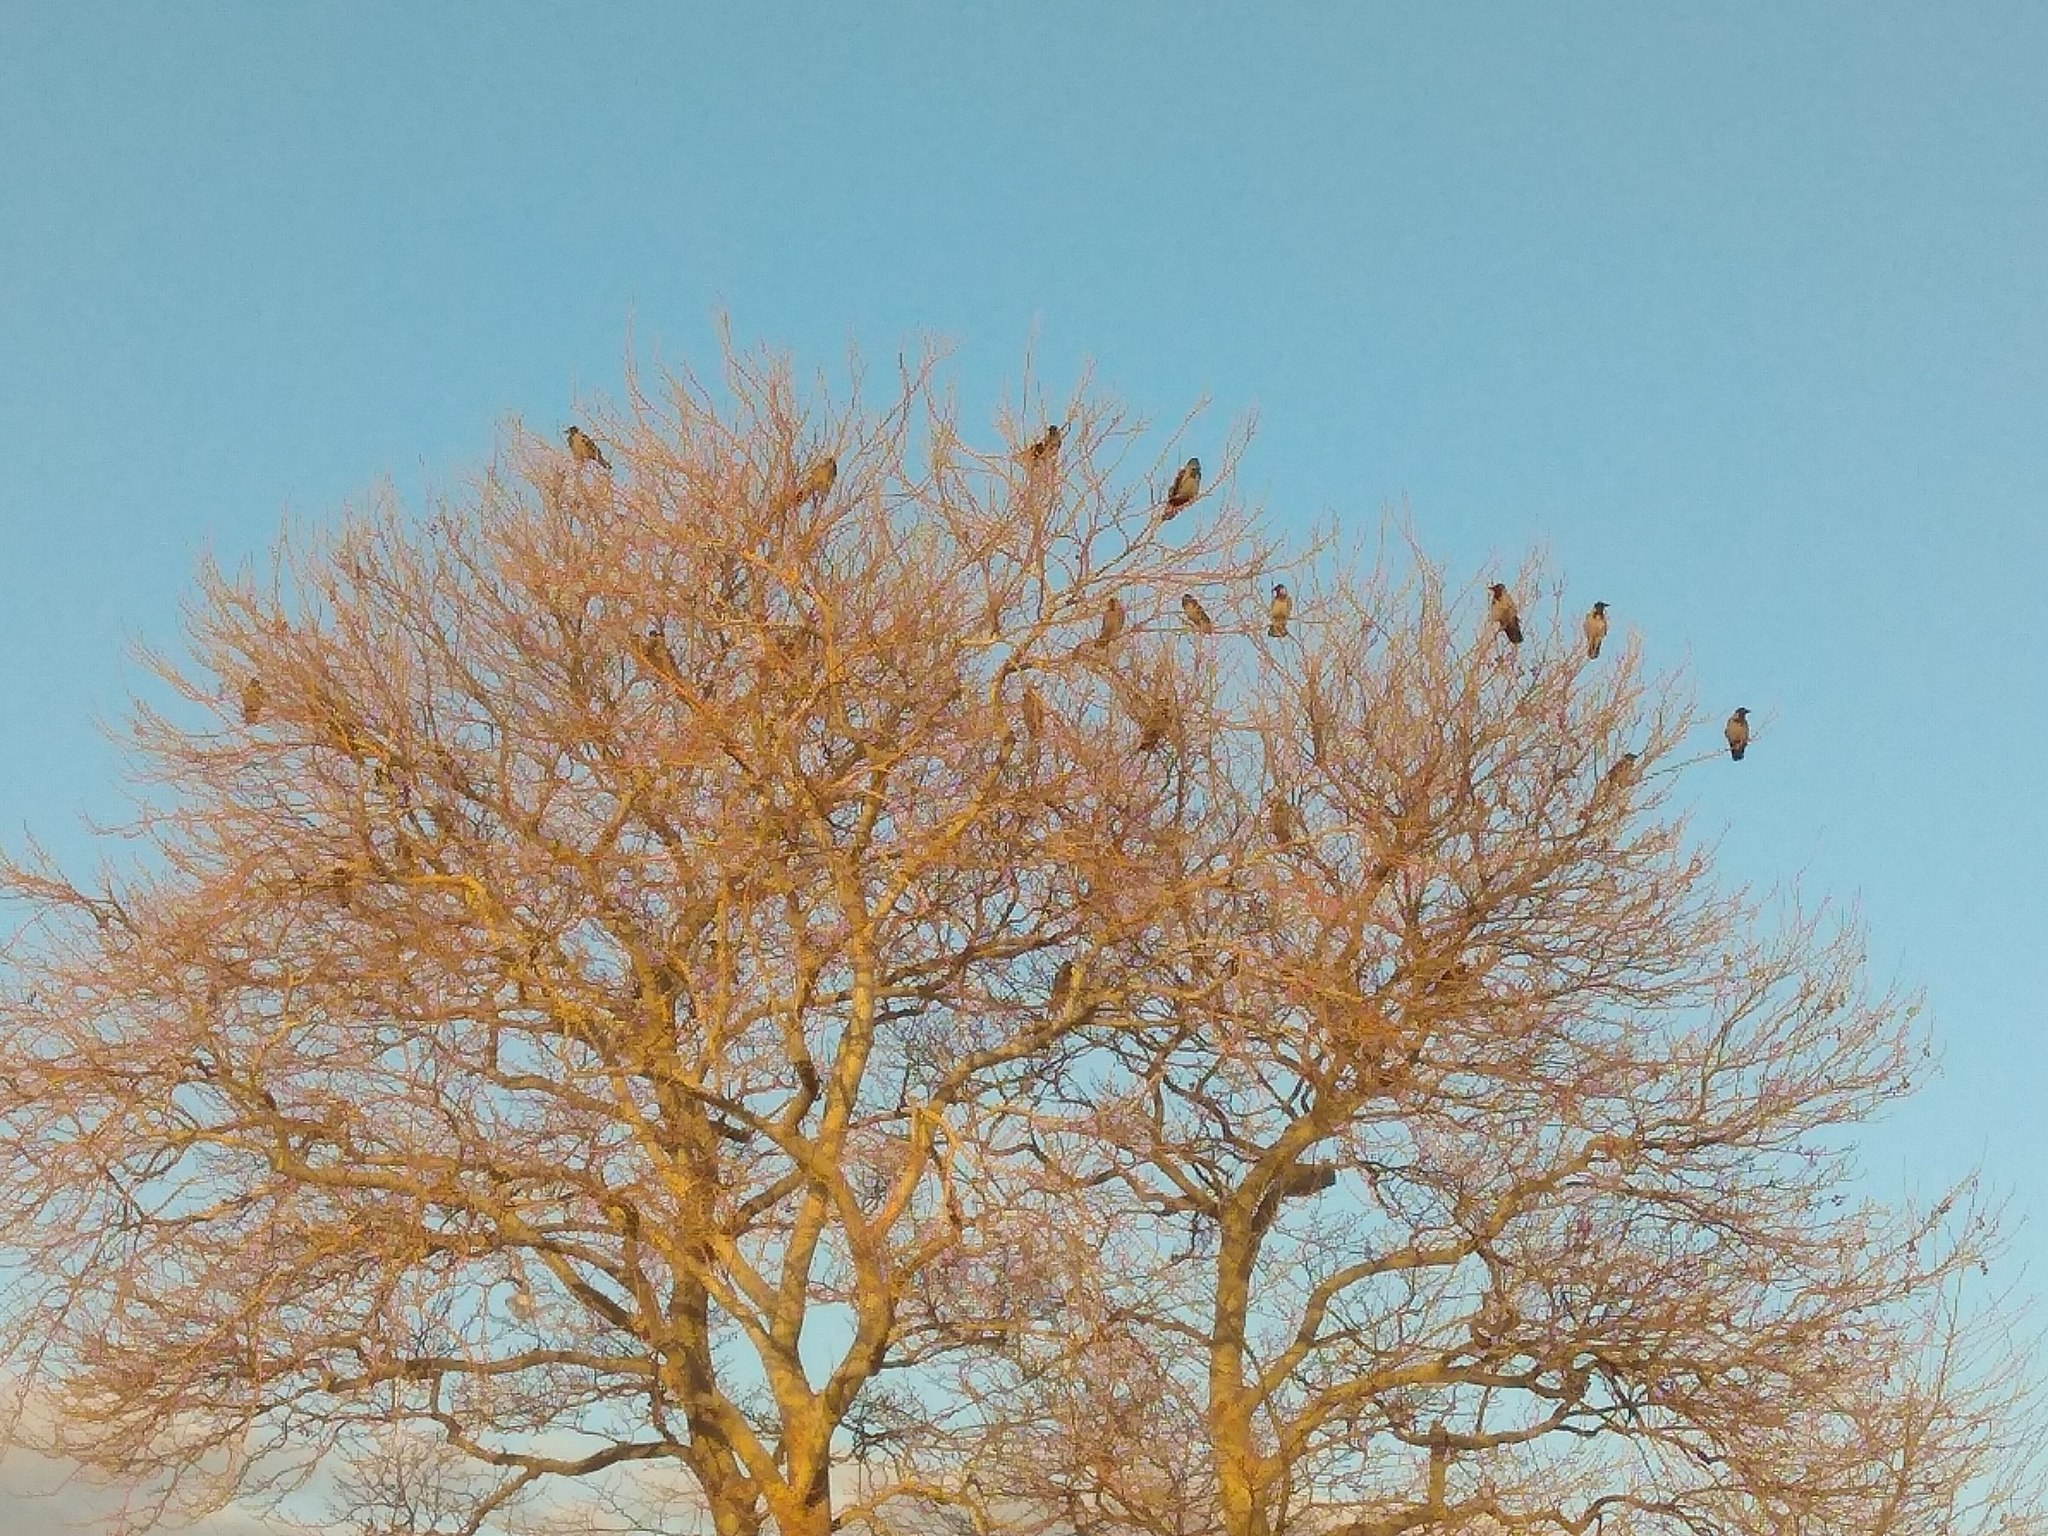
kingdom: Animalia
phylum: Chordata
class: Aves
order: Passeriformes
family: Corvidae
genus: Corvus
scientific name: Corvus cornix
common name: Hooded crow
